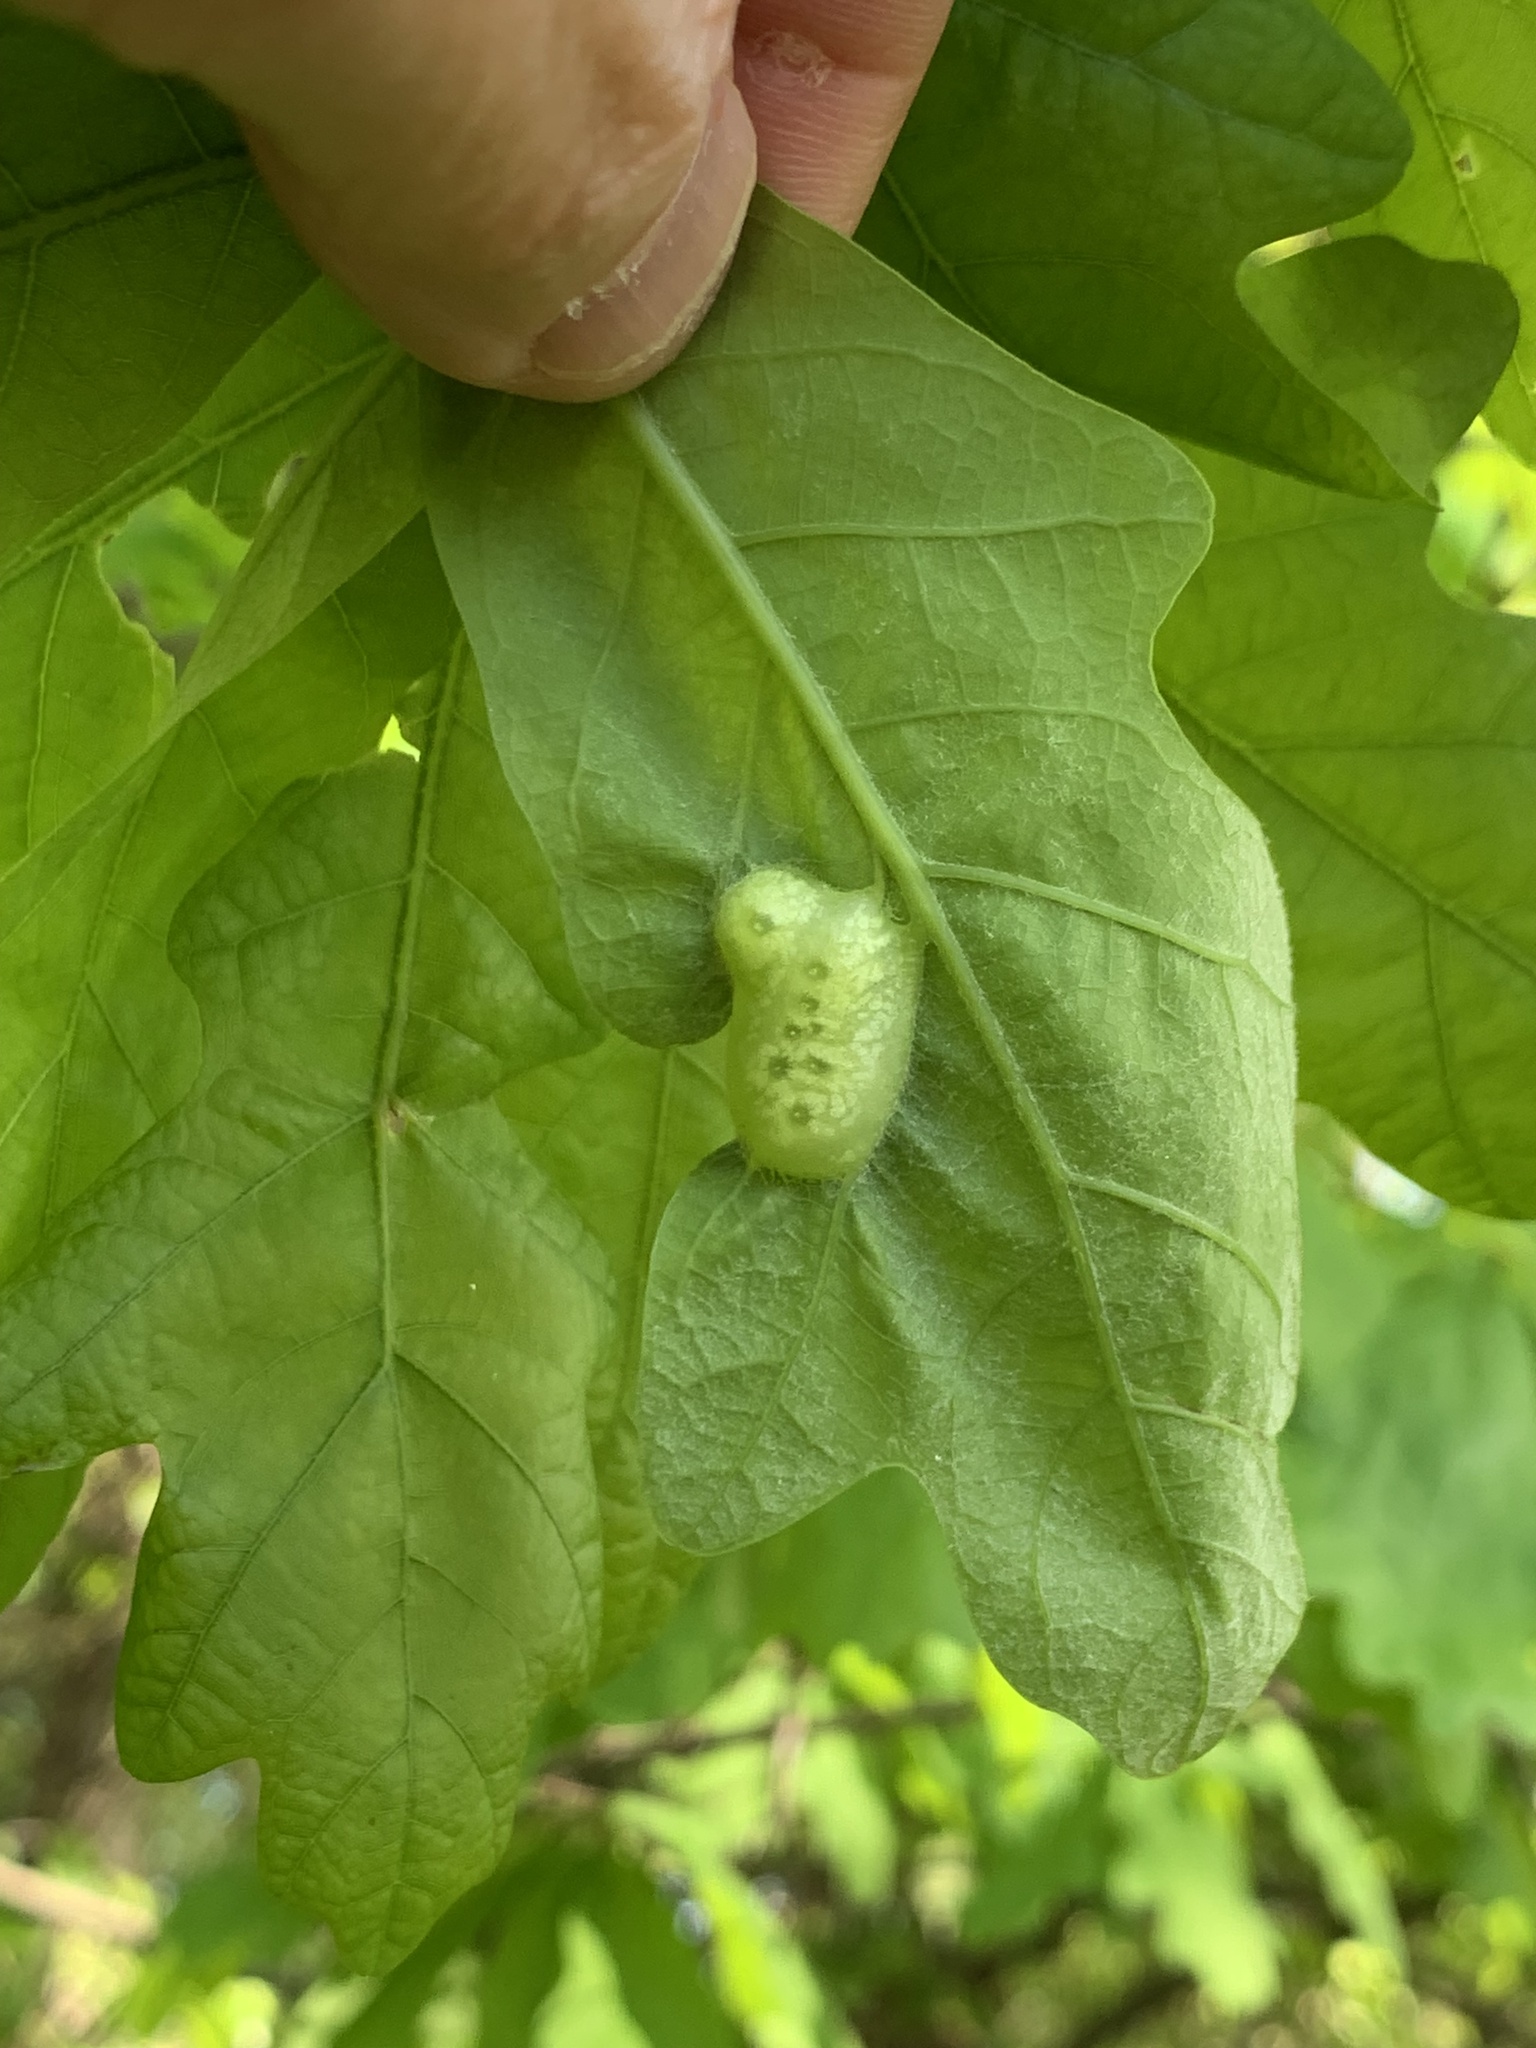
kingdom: Animalia
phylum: Arthropoda
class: Insecta
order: Hymenoptera
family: Cynipidae
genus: Neuroterus
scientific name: Neuroterus quercusirregularis
